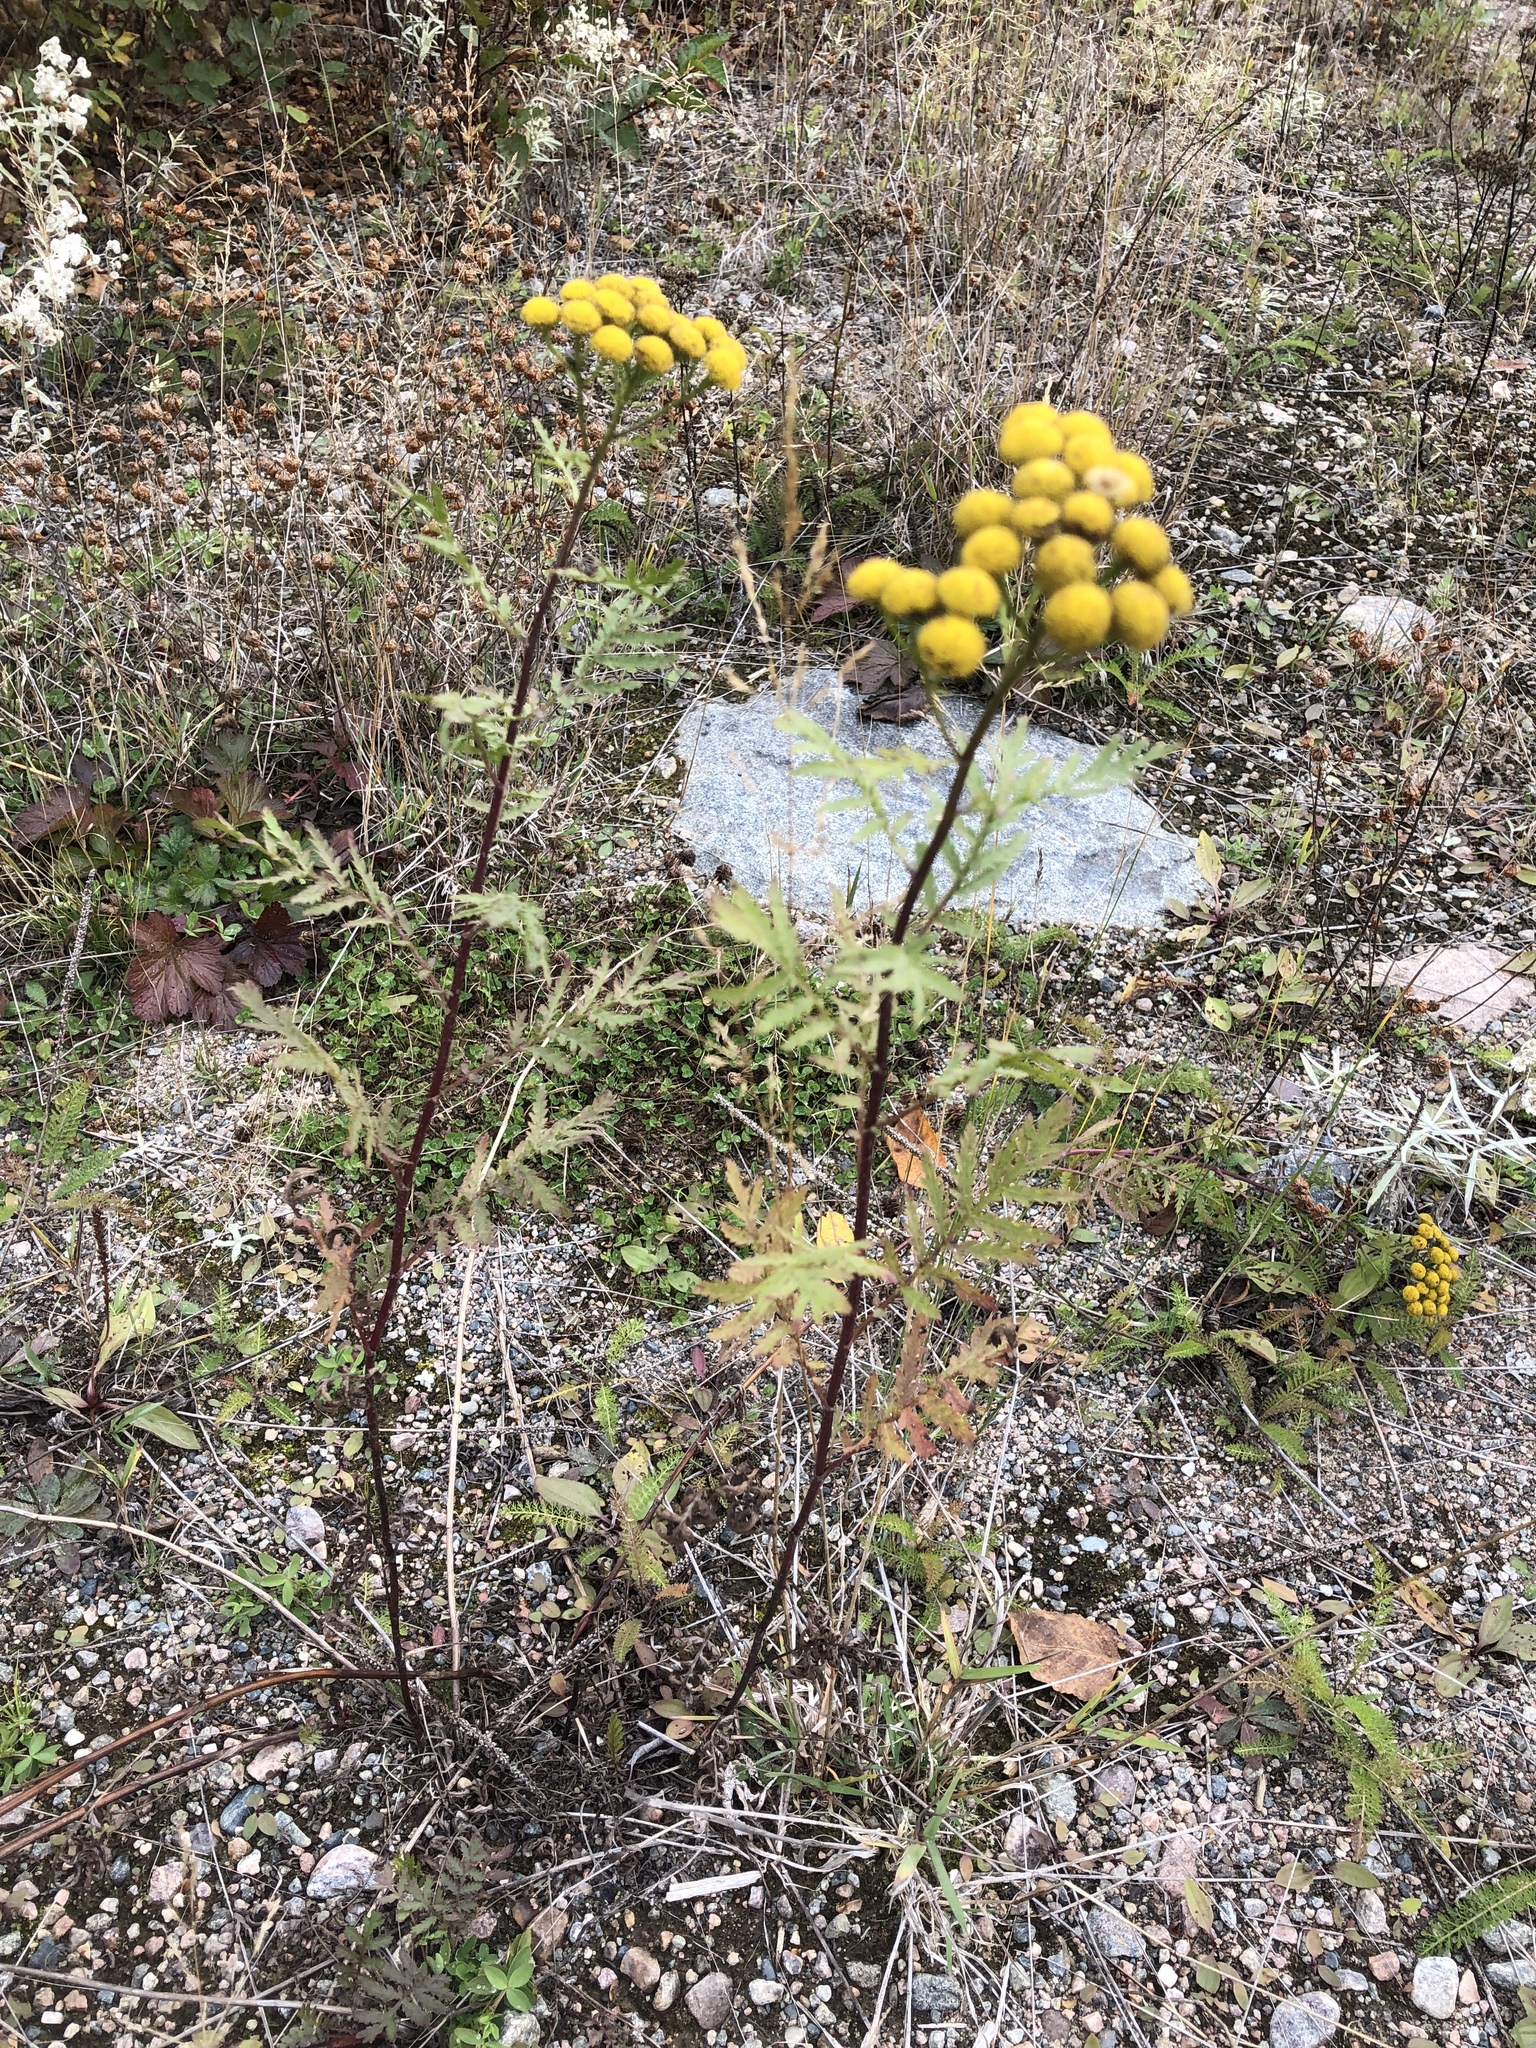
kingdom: Plantae
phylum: Tracheophyta
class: Magnoliopsida
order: Asterales
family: Asteraceae
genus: Tanacetum
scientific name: Tanacetum vulgare
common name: Common tansy
